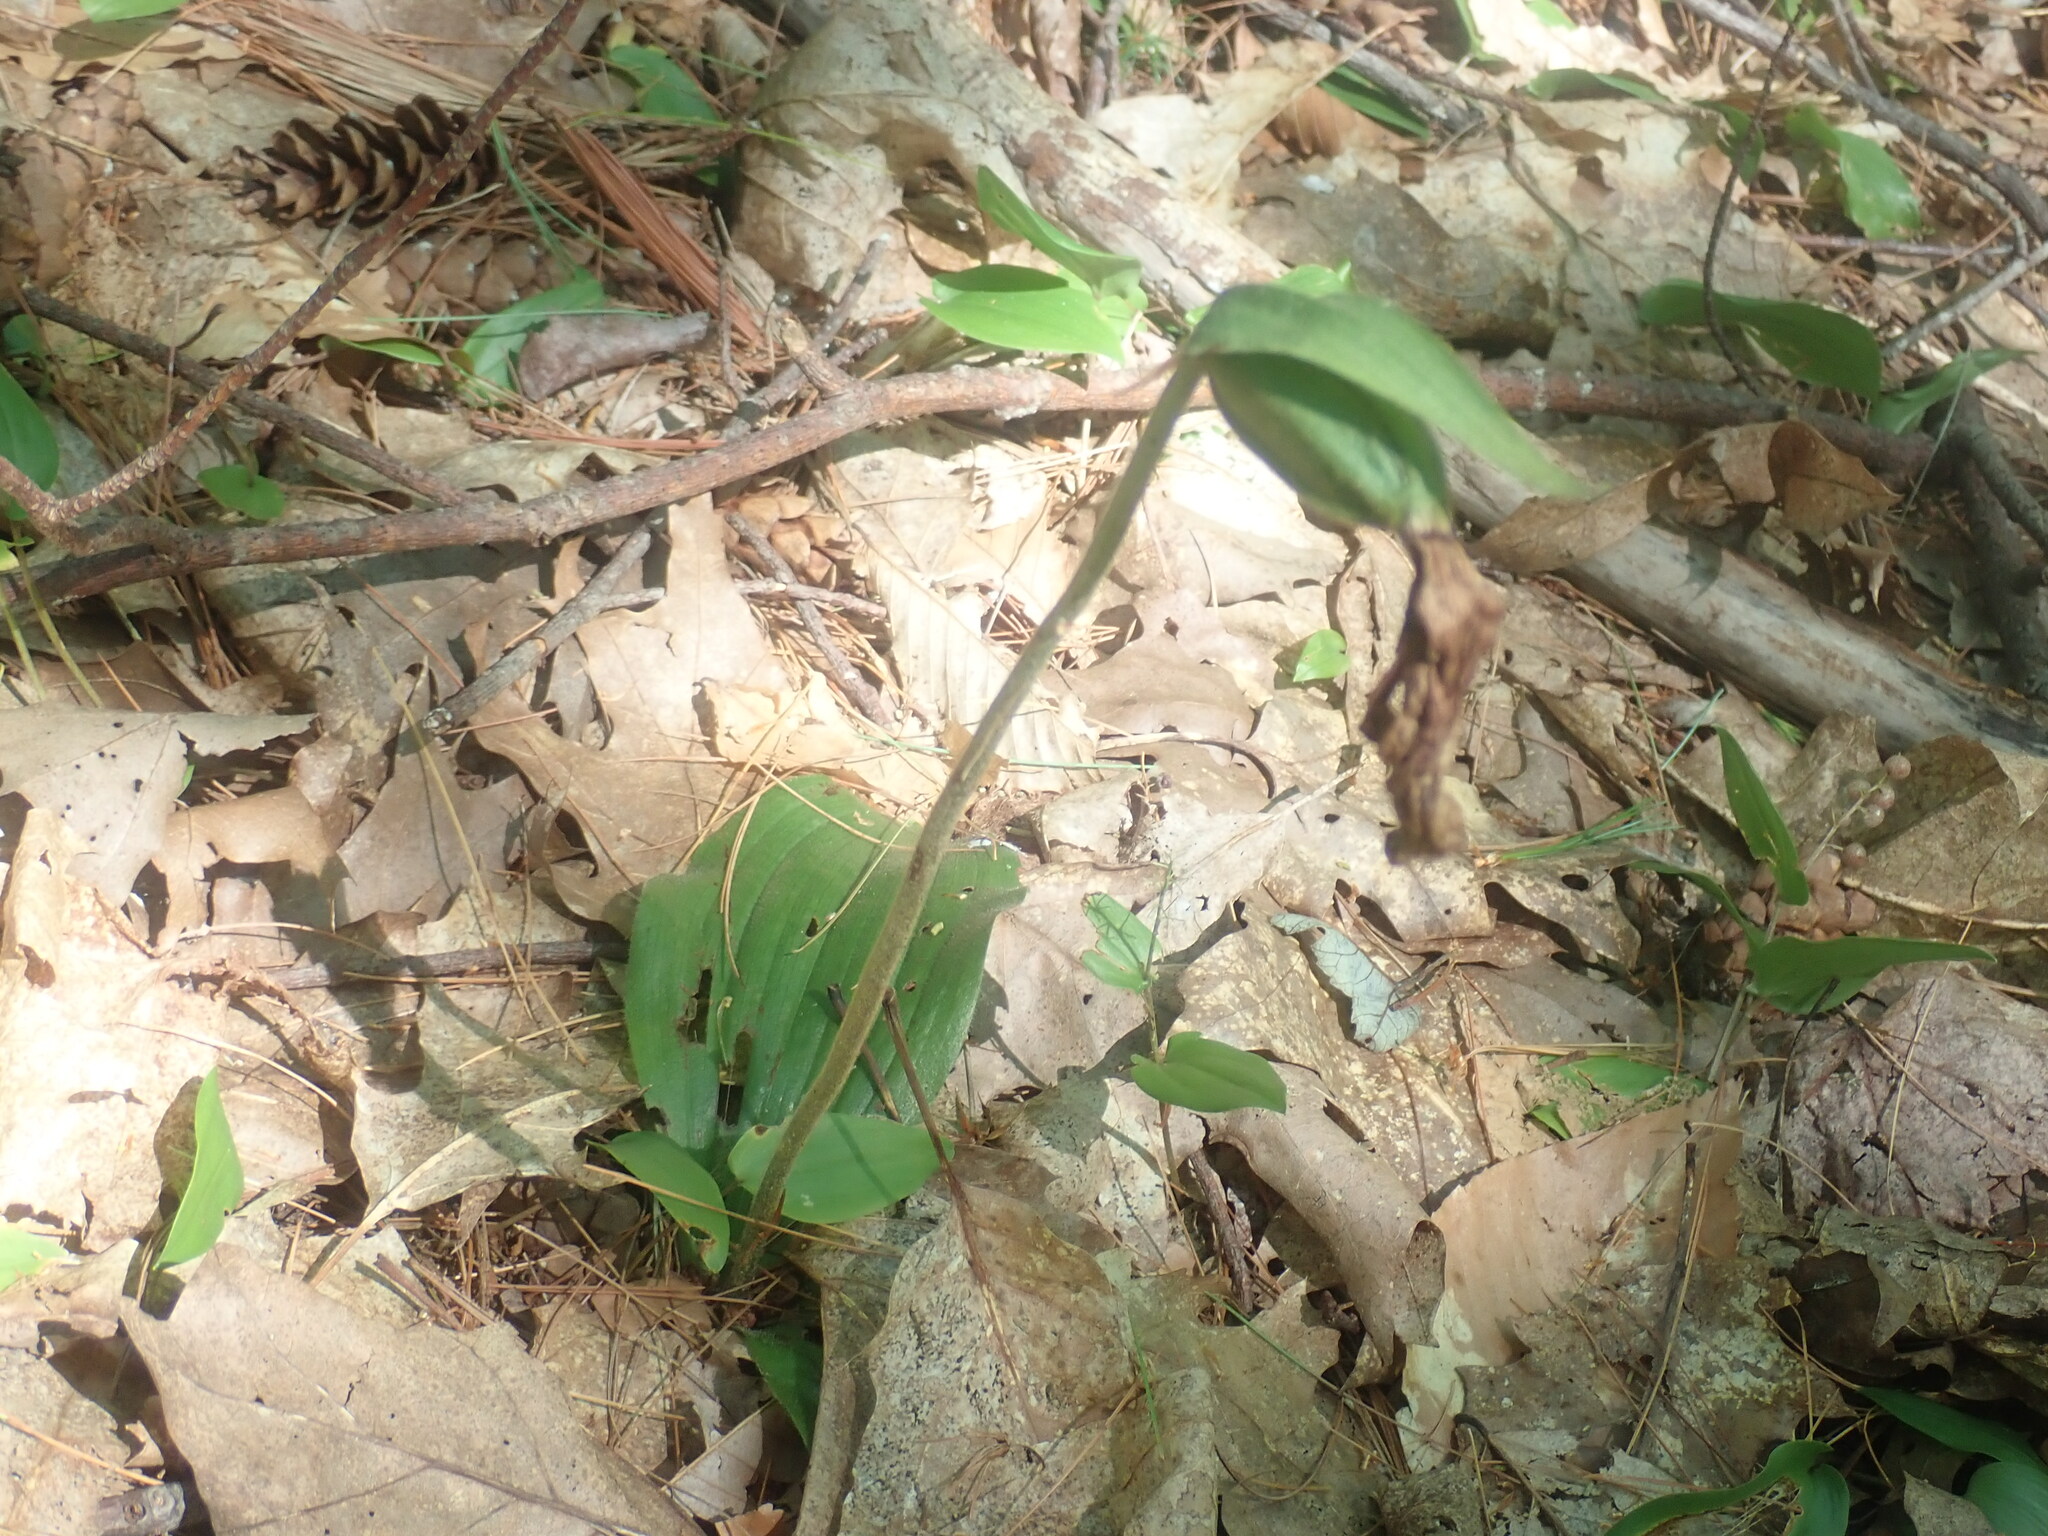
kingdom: Plantae
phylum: Tracheophyta
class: Liliopsida
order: Asparagales
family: Orchidaceae
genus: Cypripedium
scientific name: Cypripedium acaule
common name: Pink lady's-slipper
